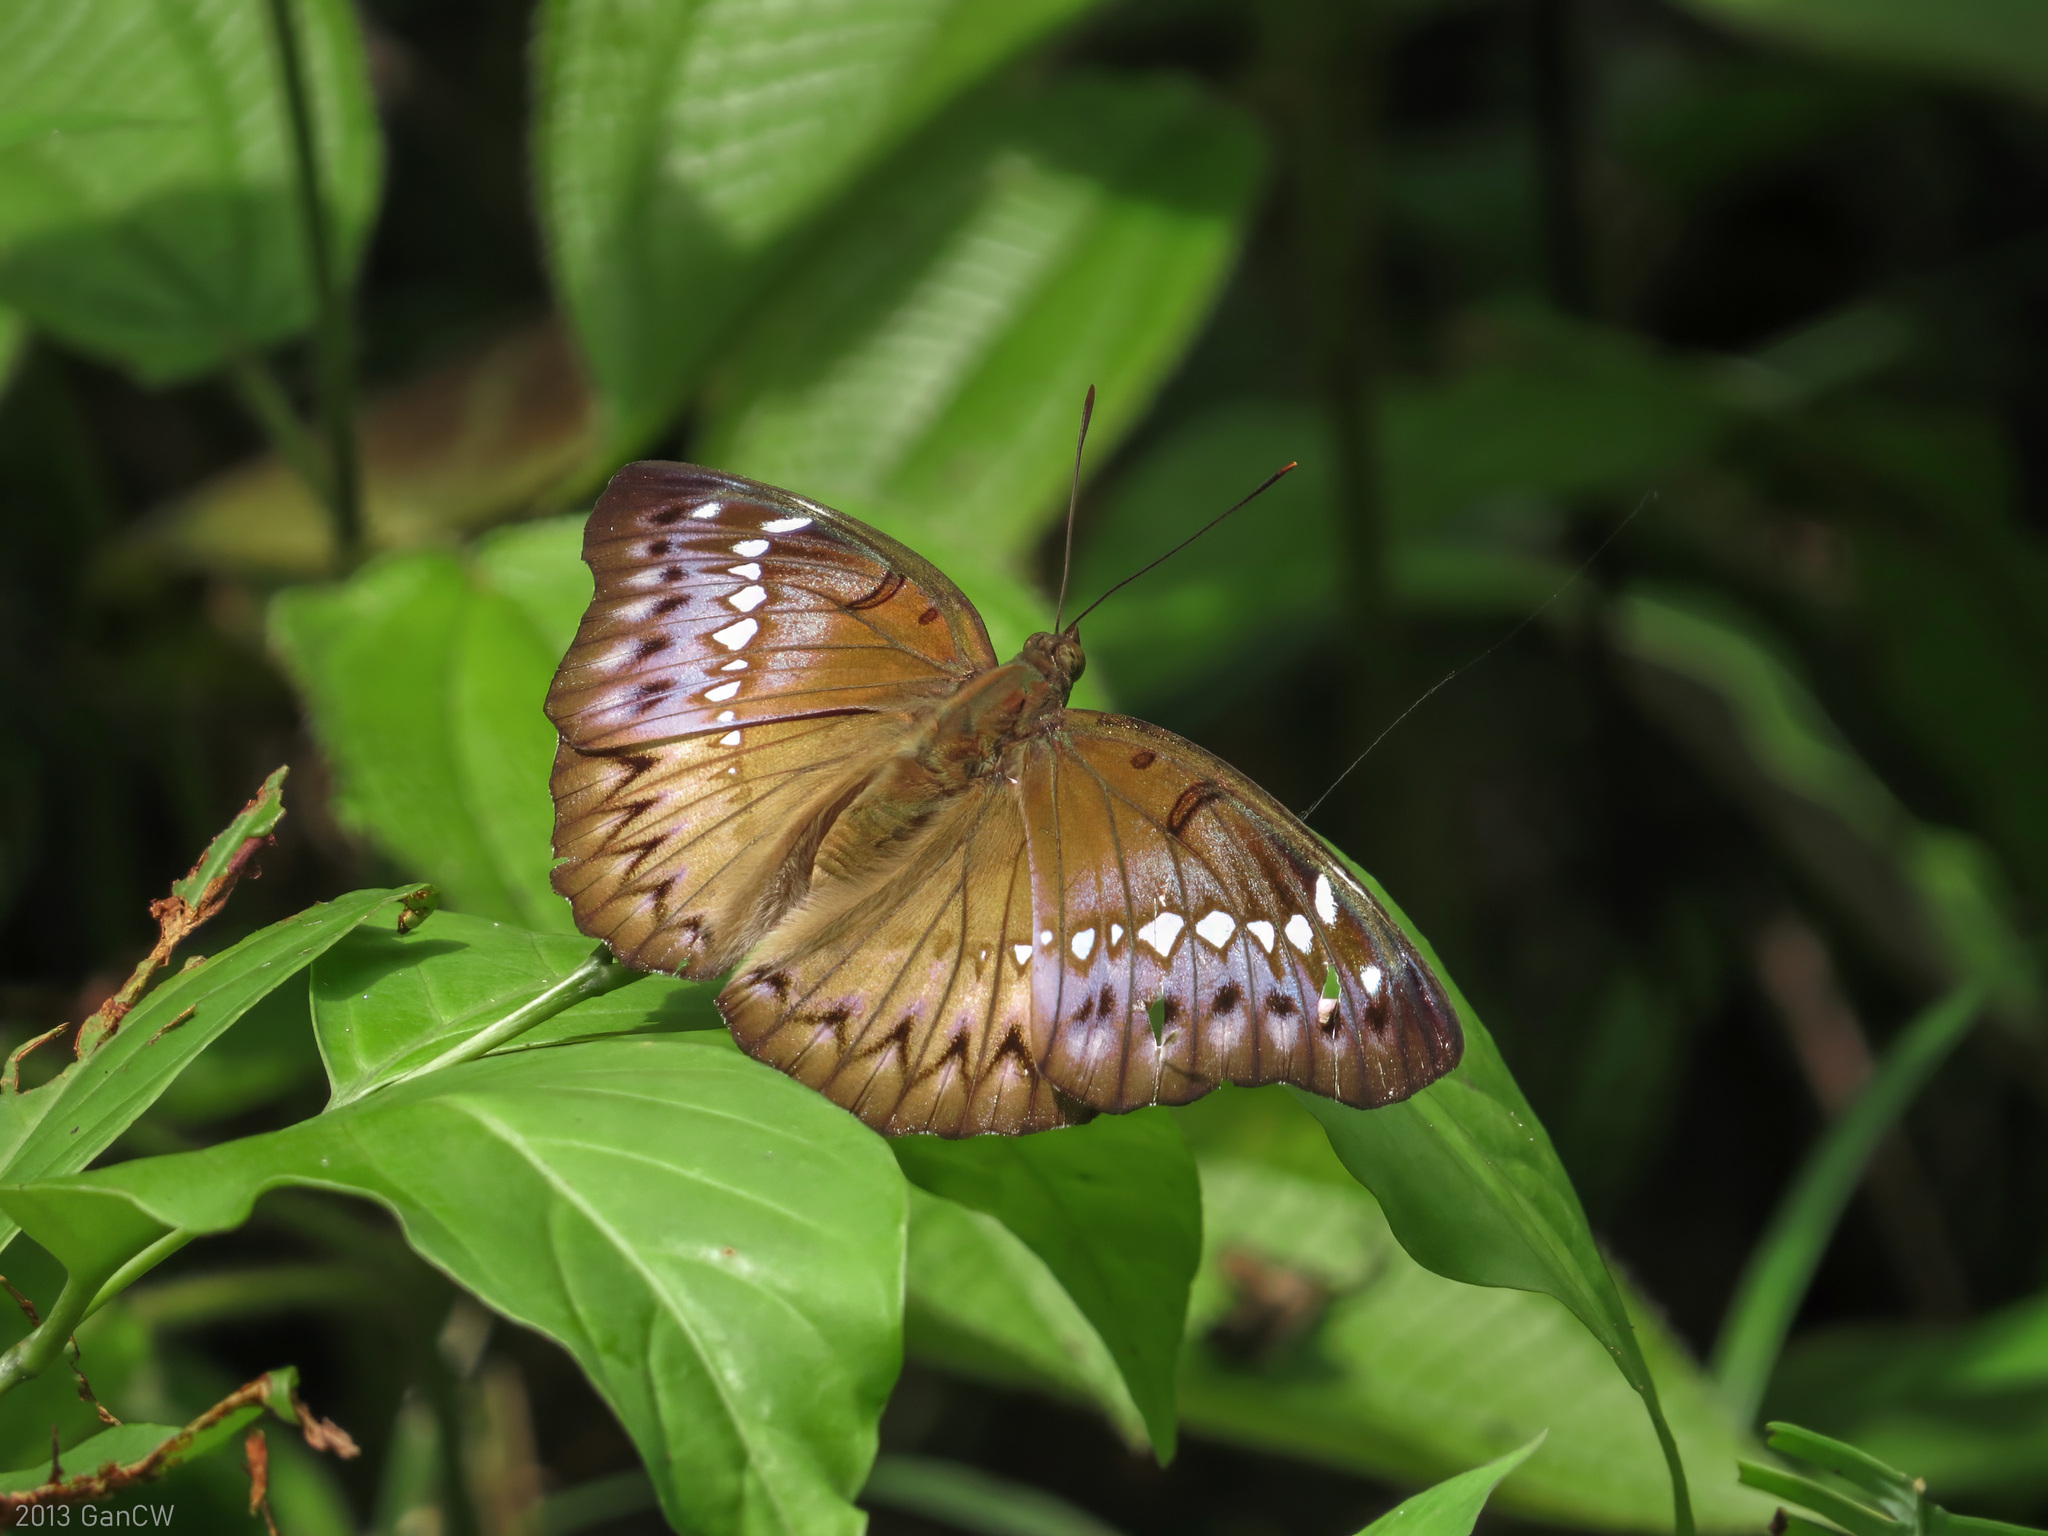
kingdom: Animalia
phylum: Arthropoda
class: Insecta
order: Lepidoptera
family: Nymphalidae
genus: Euthalia
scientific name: Euthalia Bassarona teuta
